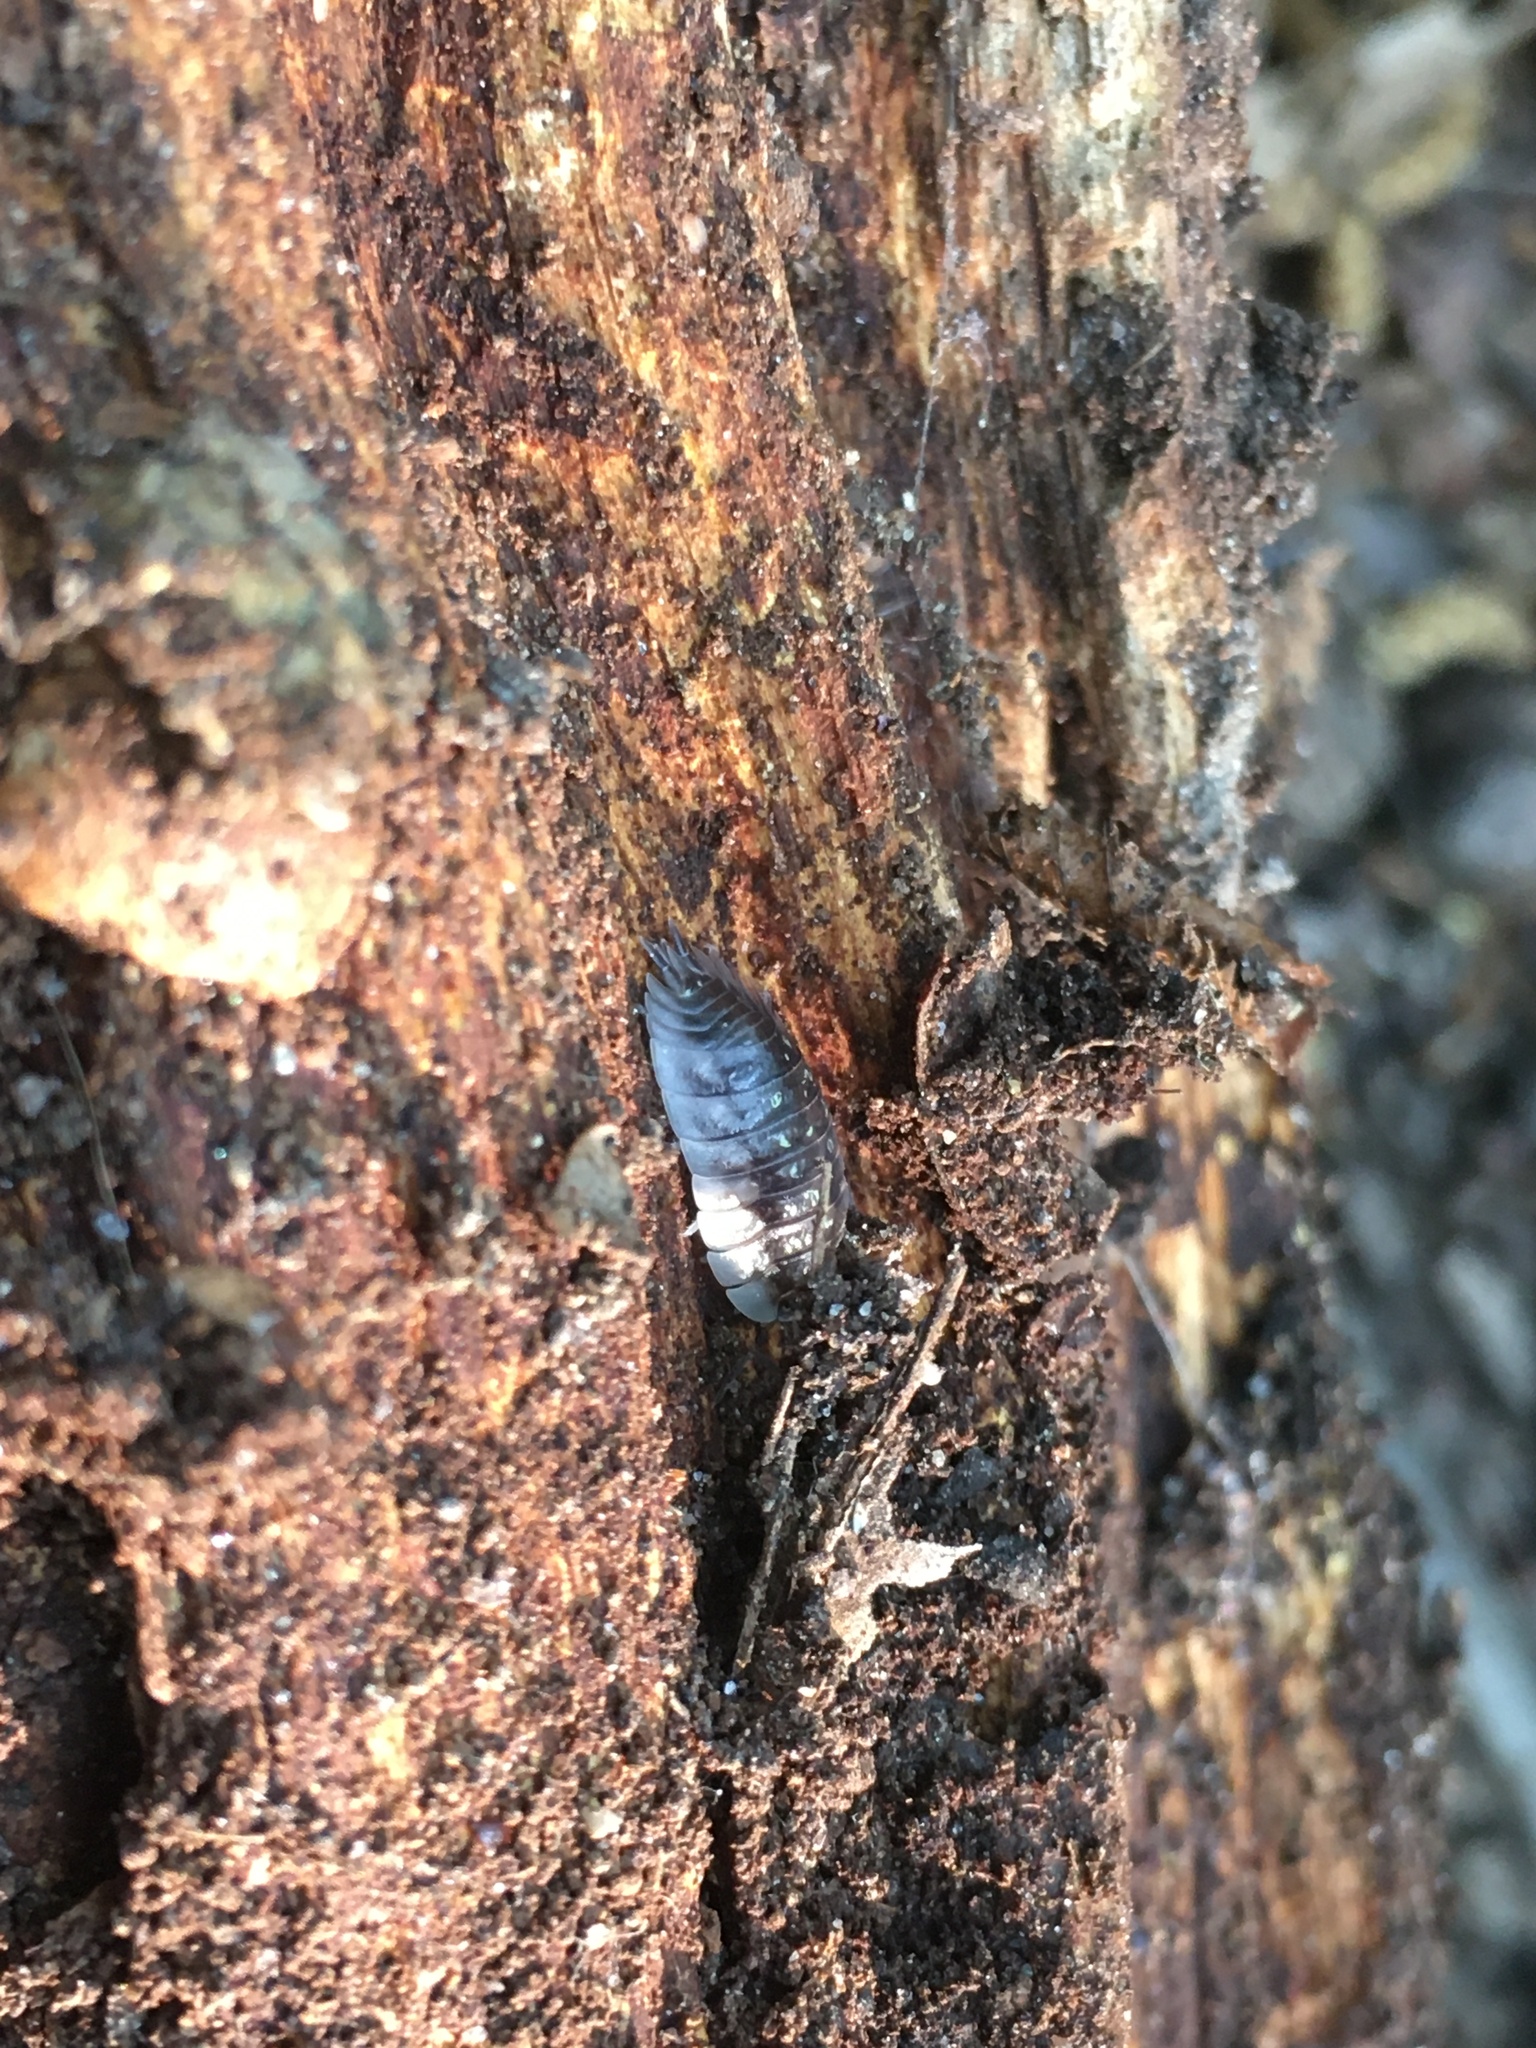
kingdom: Animalia
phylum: Arthropoda
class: Malacostraca
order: Isopoda
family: Oniscidae
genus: Oniscus
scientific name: Oniscus asellus
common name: Common shiny woodlouse
